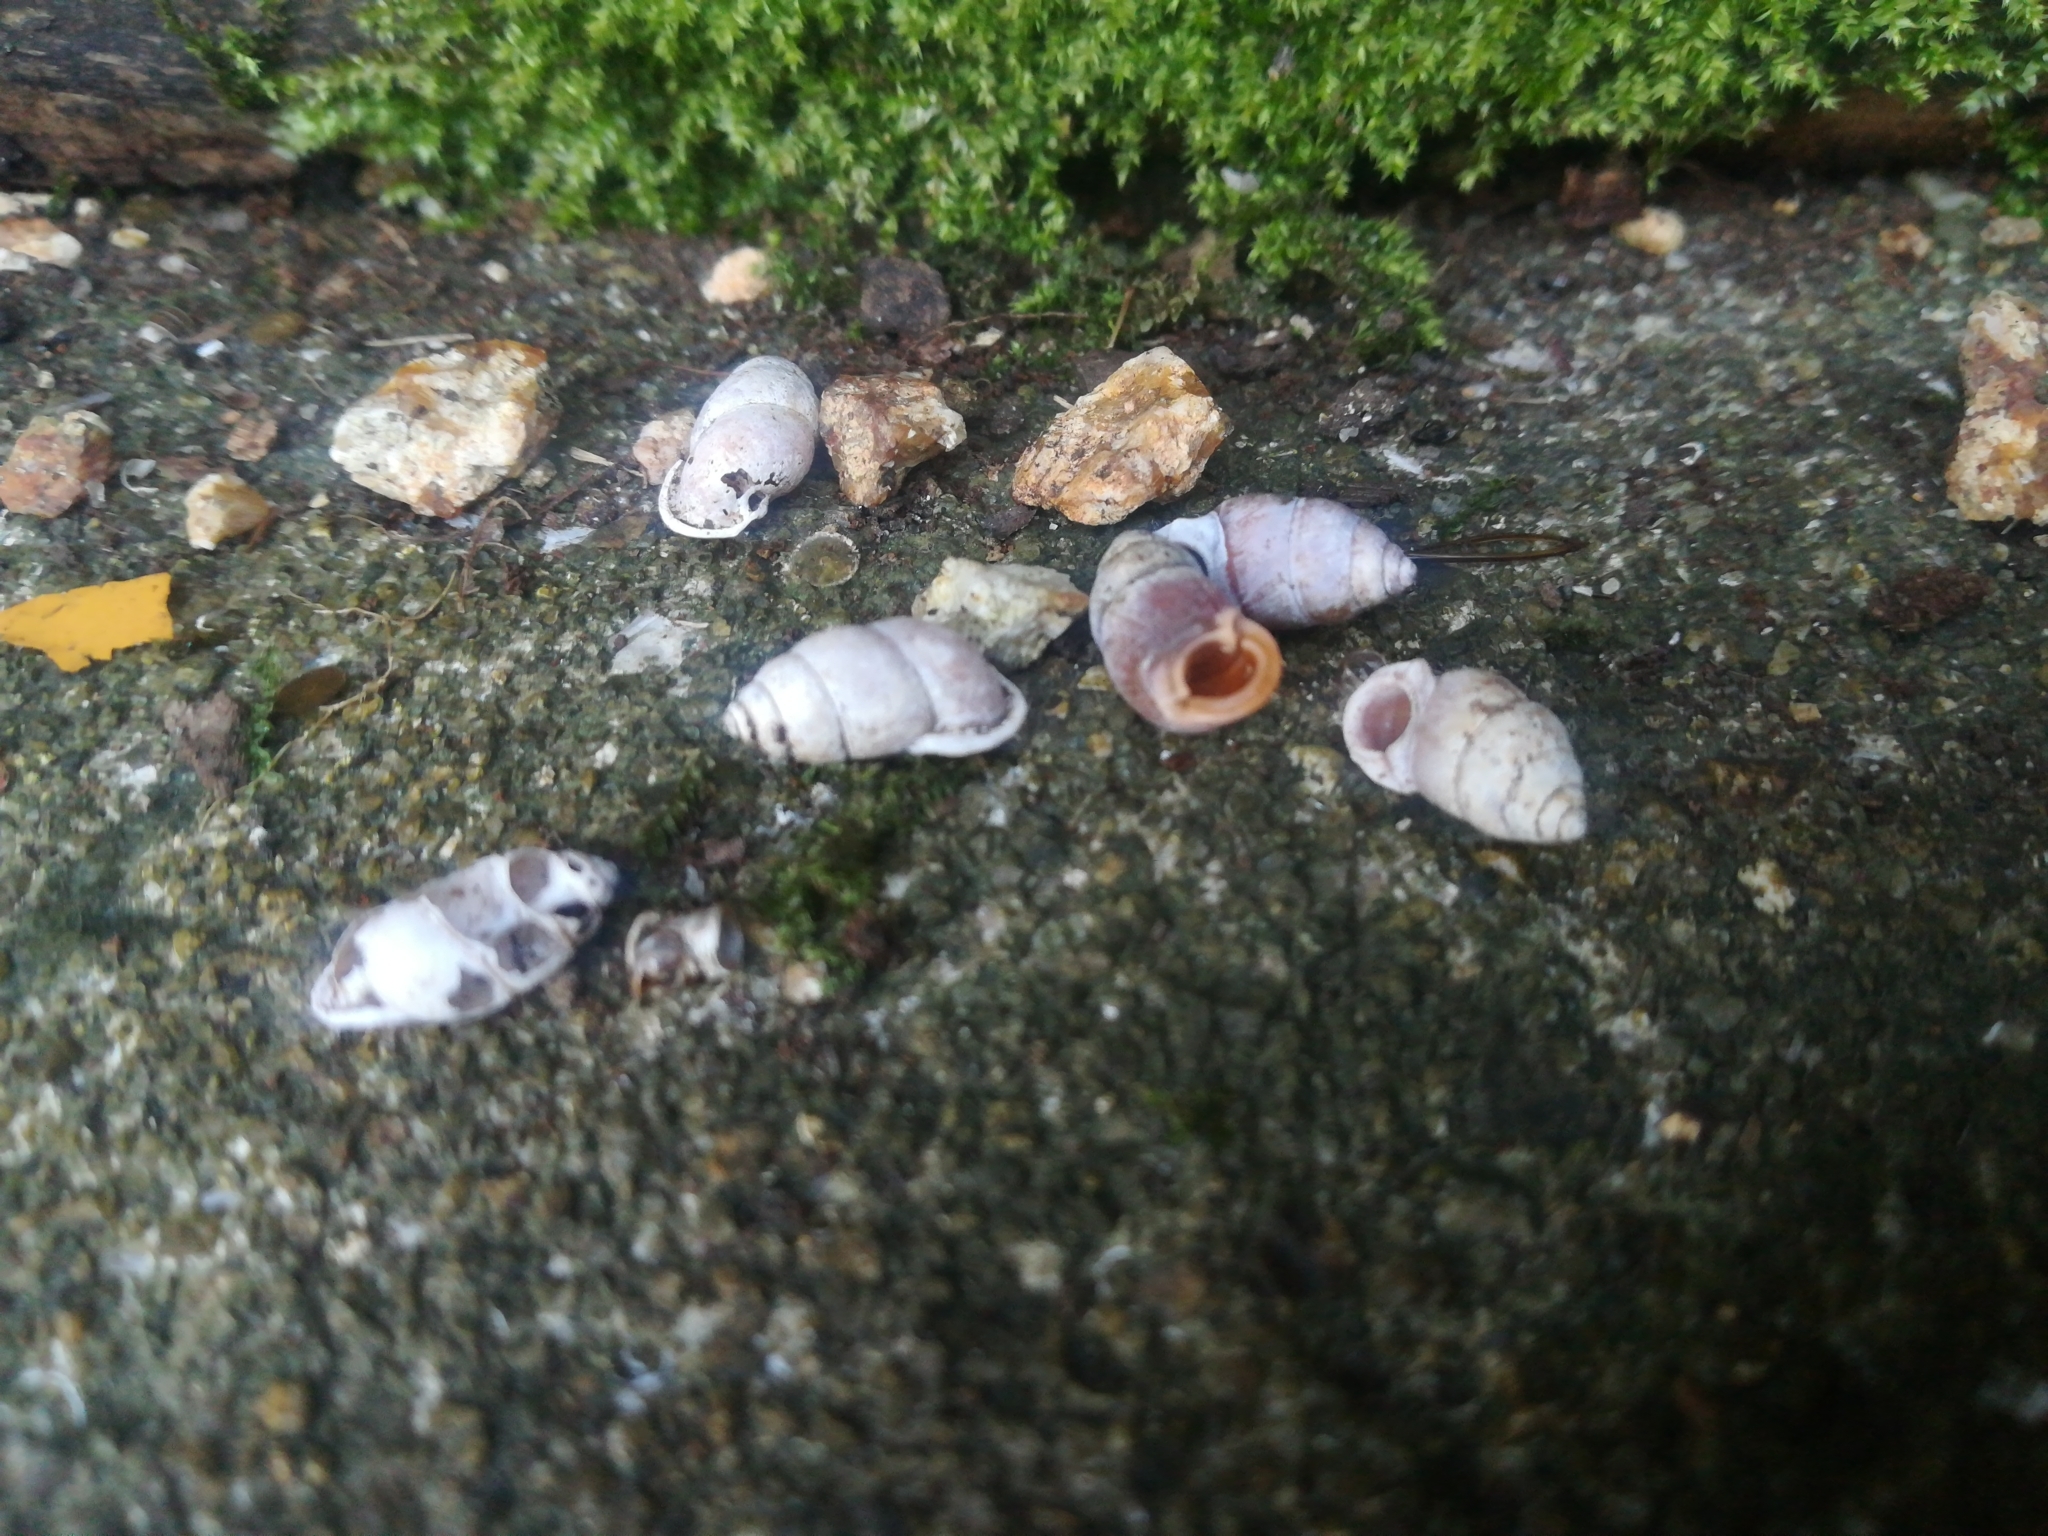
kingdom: Animalia
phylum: Mollusca
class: Gastropoda
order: Architaenioglossa
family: Pupinidae
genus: Pupinella
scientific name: Pupinella rufa
